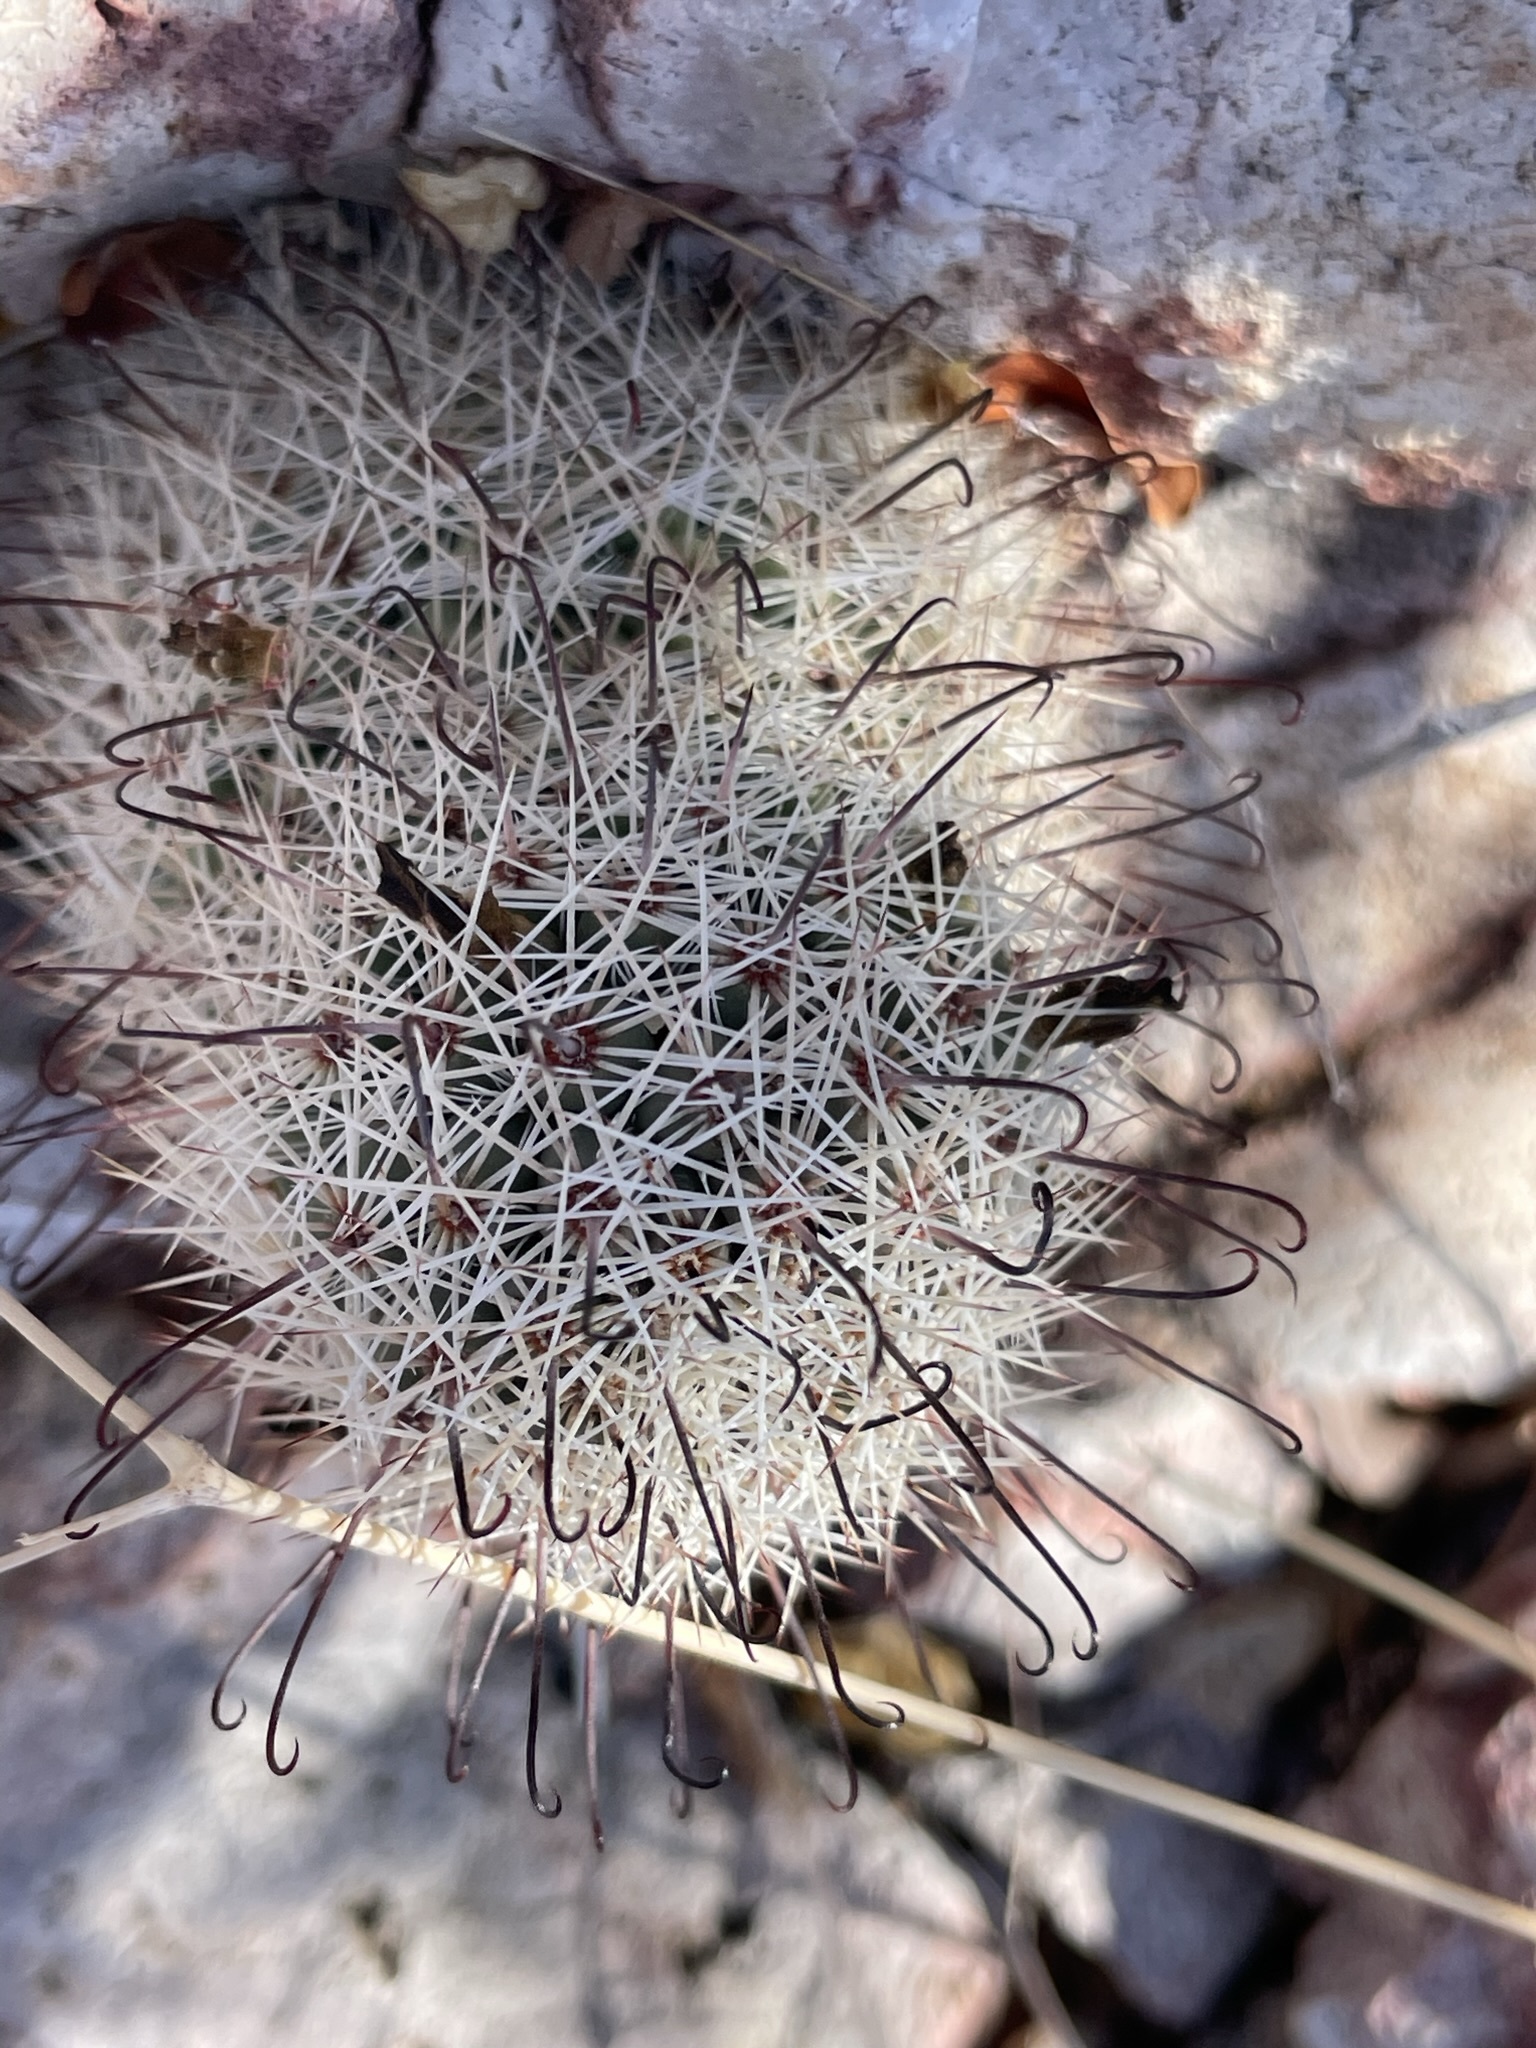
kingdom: Plantae
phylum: Tracheophyta
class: Magnoliopsida
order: Caryophyllales
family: Cactaceae
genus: Cochemiea
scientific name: Cochemiea dioica
